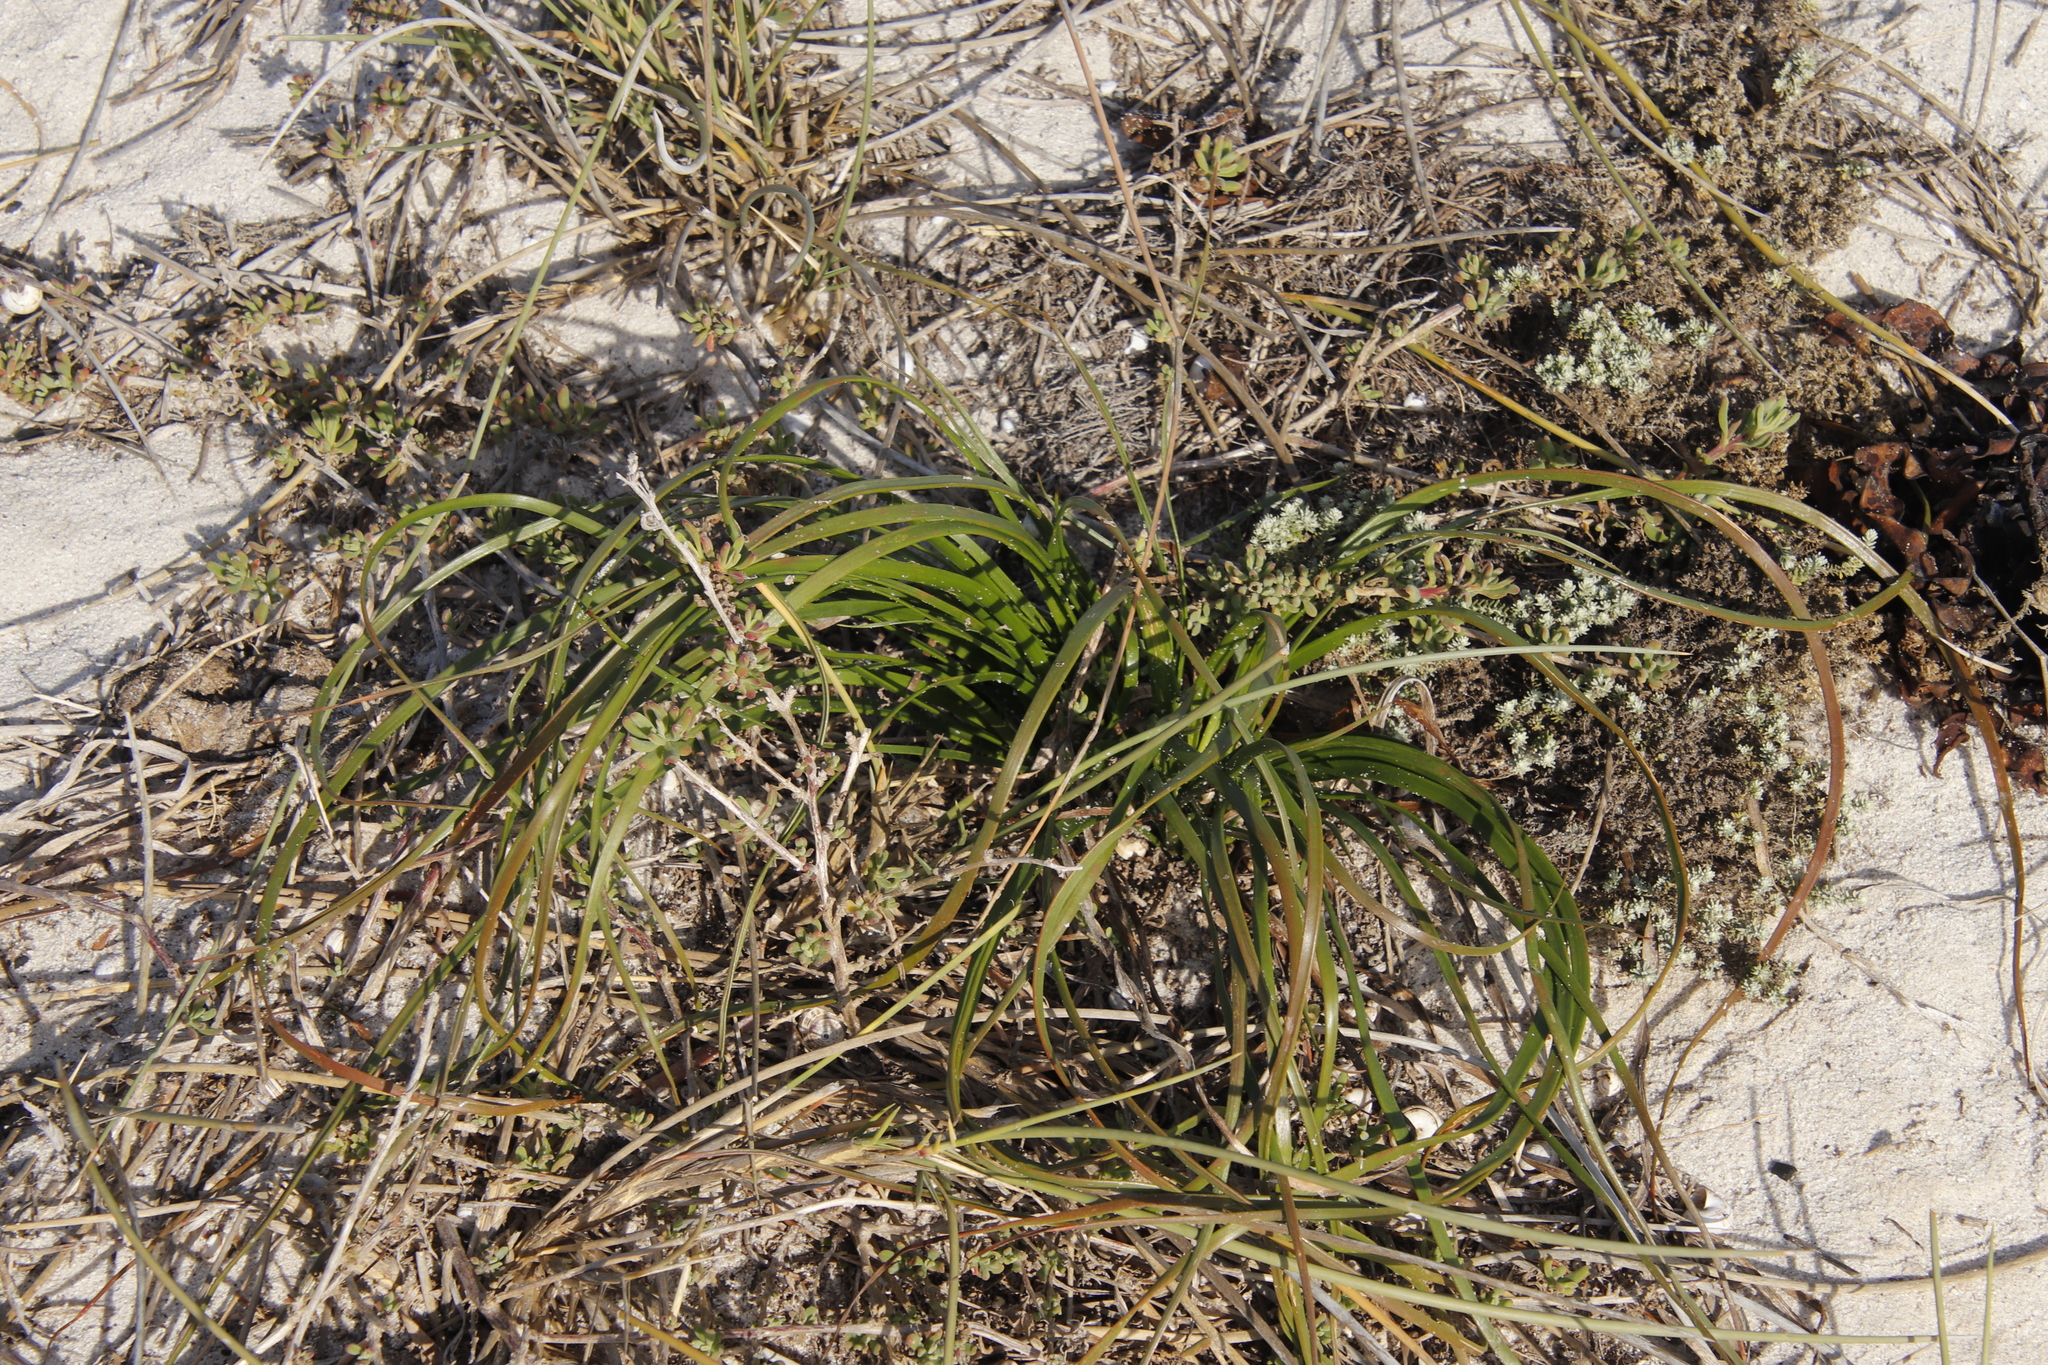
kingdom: Plantae
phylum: Tracheophyta
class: Liliopsida
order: Asparagales
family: Asphodelaceae
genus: Trachyandra
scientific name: Trachyandra divaricata
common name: Dune onionweed
